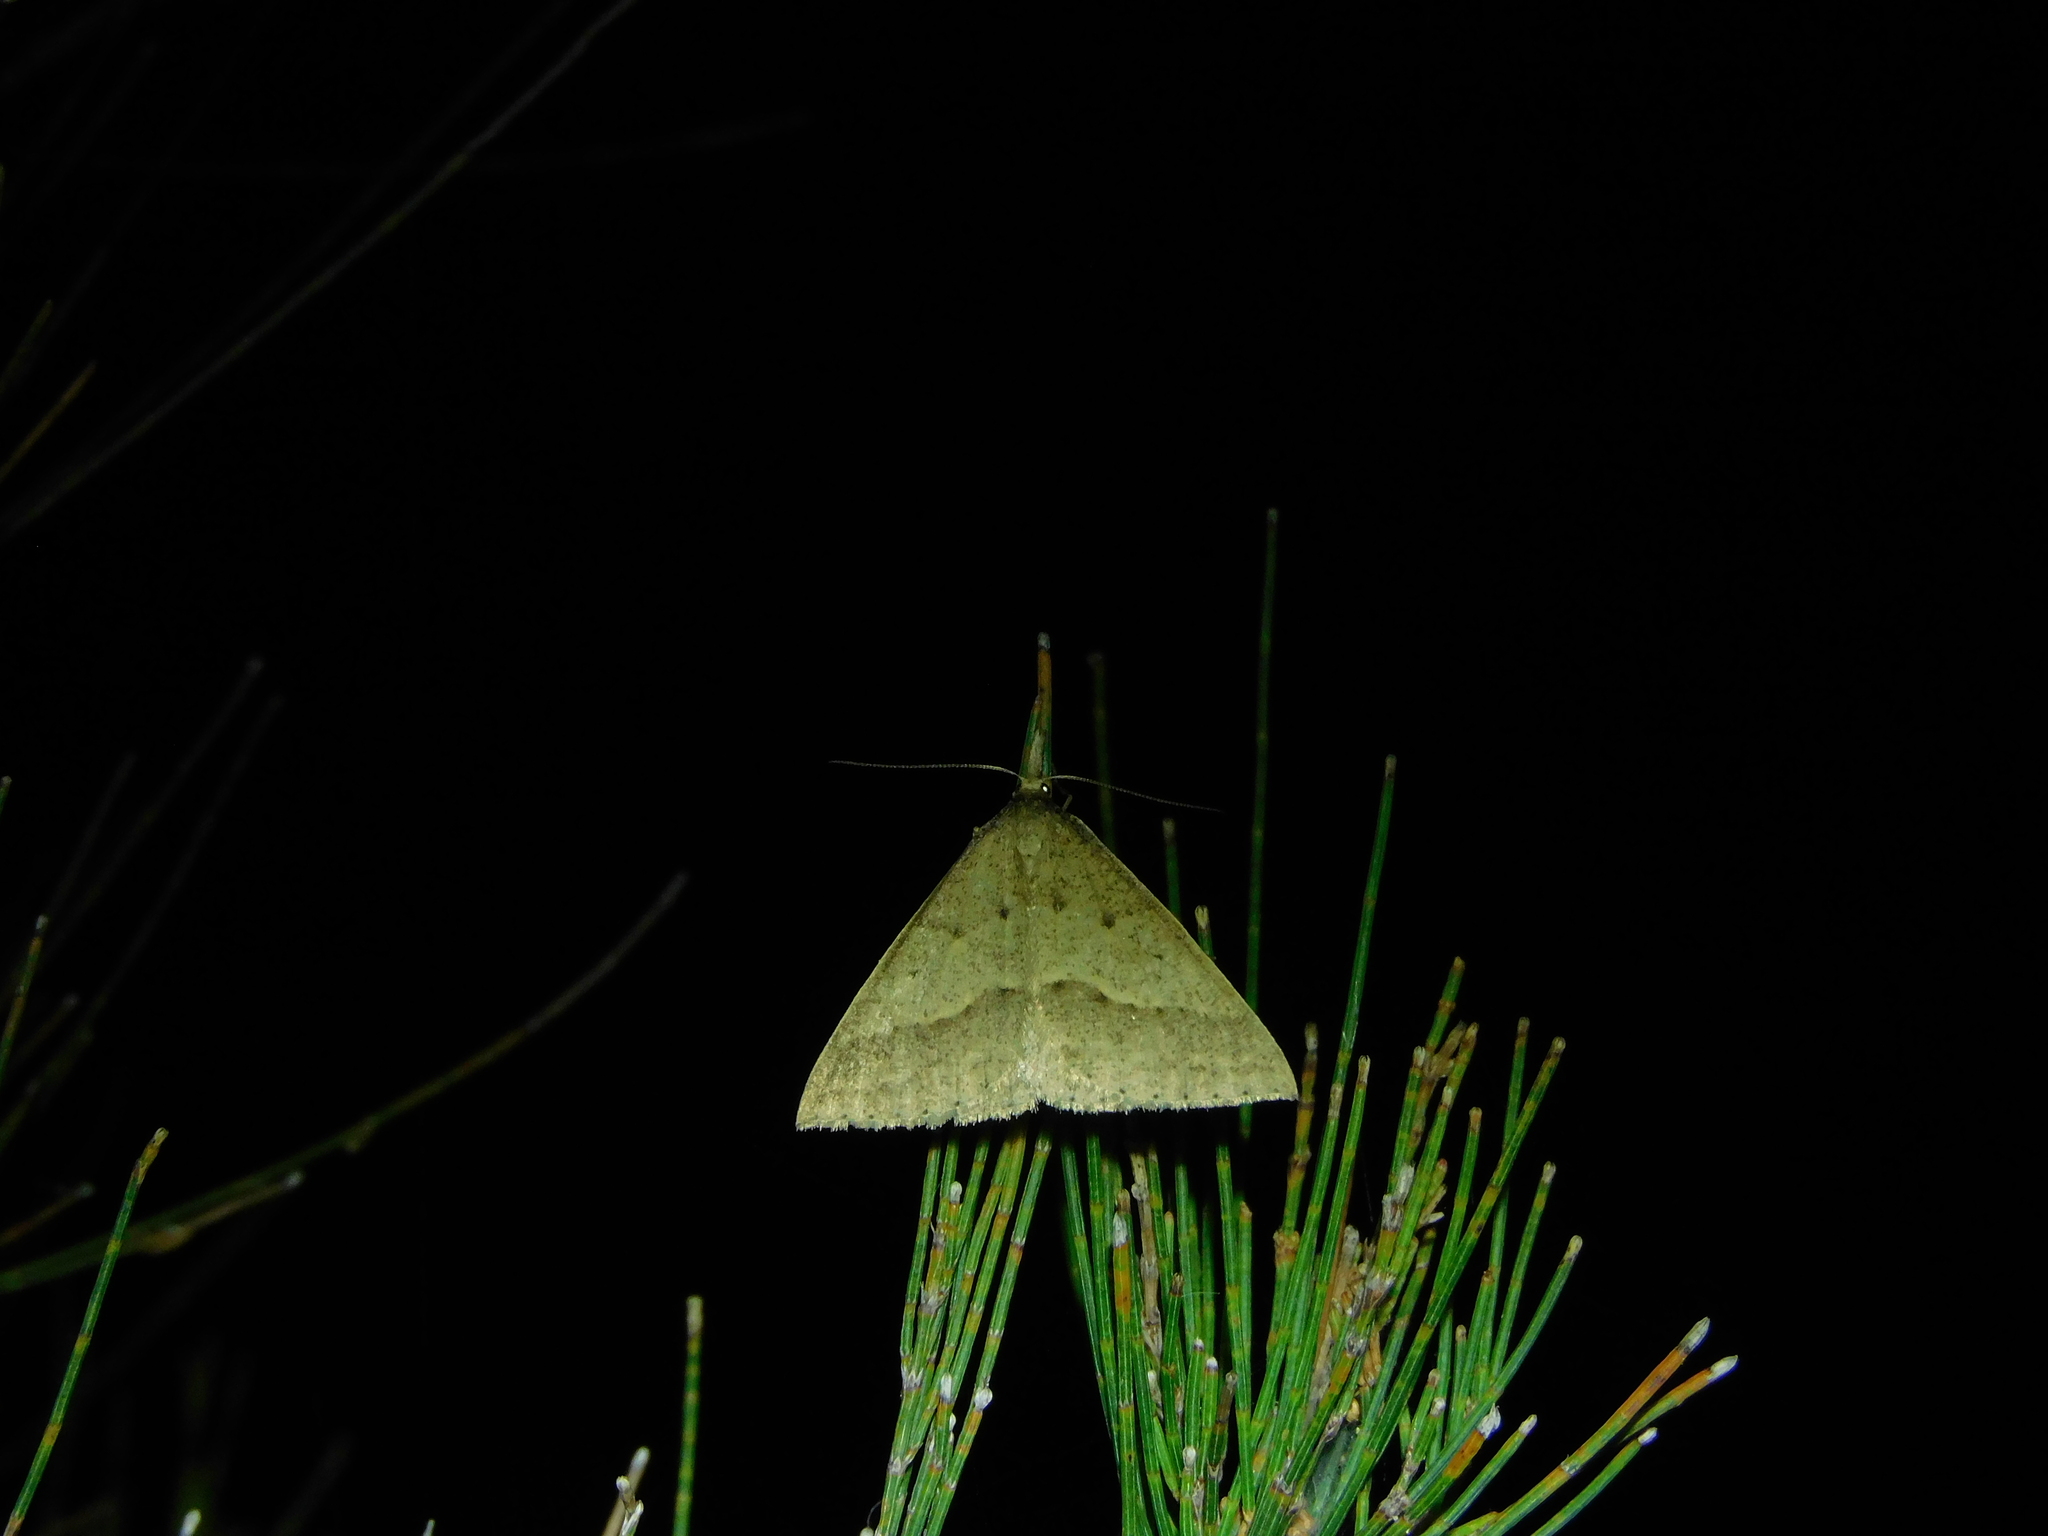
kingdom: Animalia
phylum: Arthropoda
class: Insecta
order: Lepidoptera
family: Geometridae
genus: Epidesmia
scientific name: Epidesmia hypenaria
